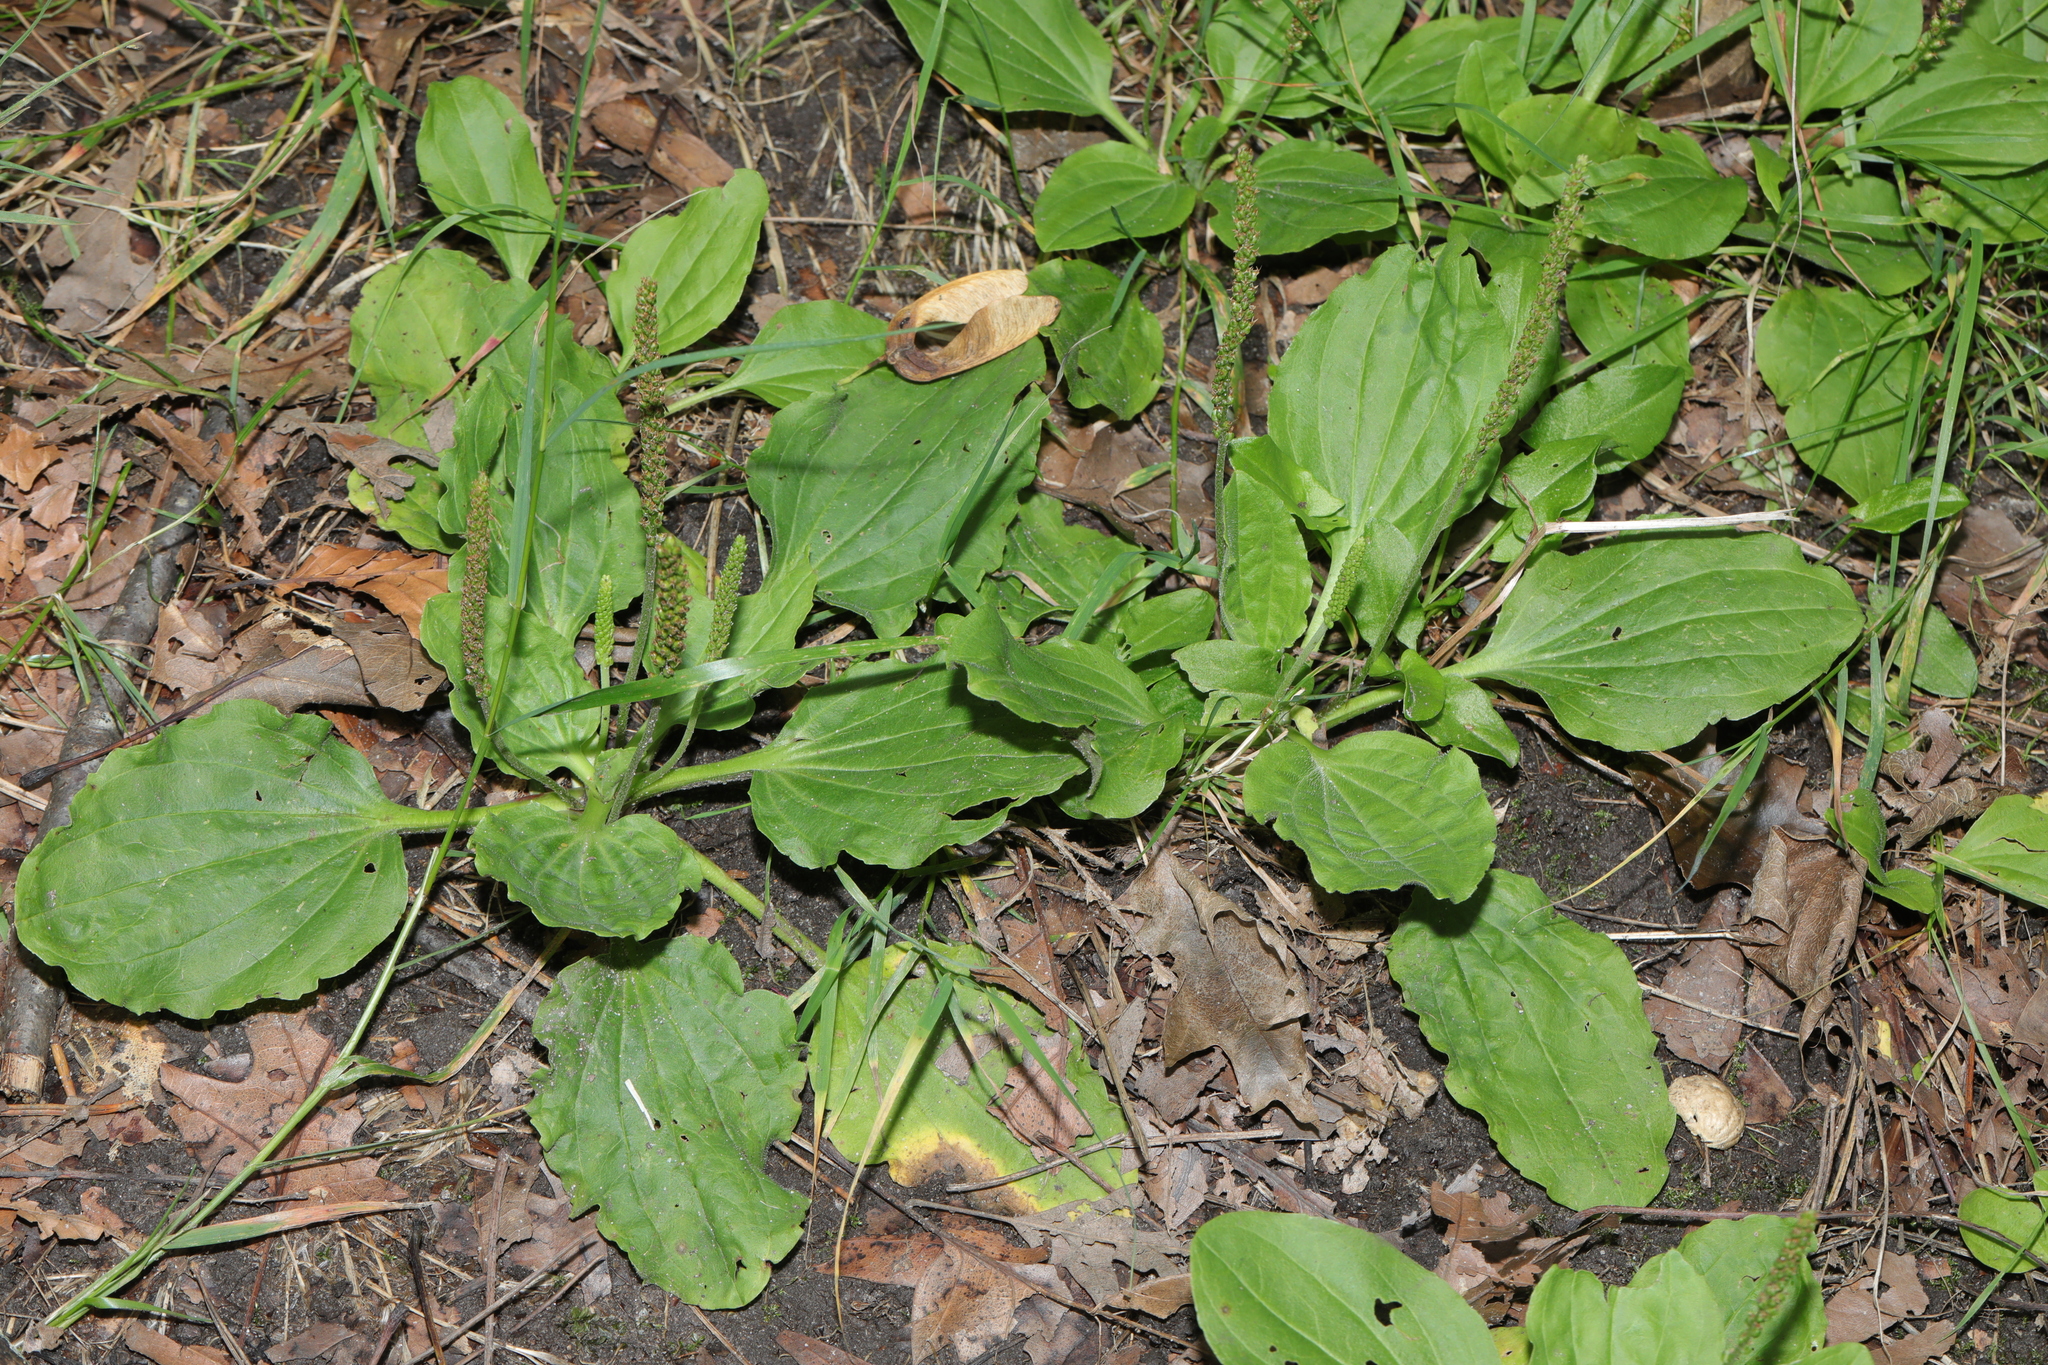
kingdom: Plantae
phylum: Tracheophyta
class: Magnoliopsida
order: Lamiales
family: Plantaginaceae
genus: Plantago
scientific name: Plantago major
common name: Common plantain
